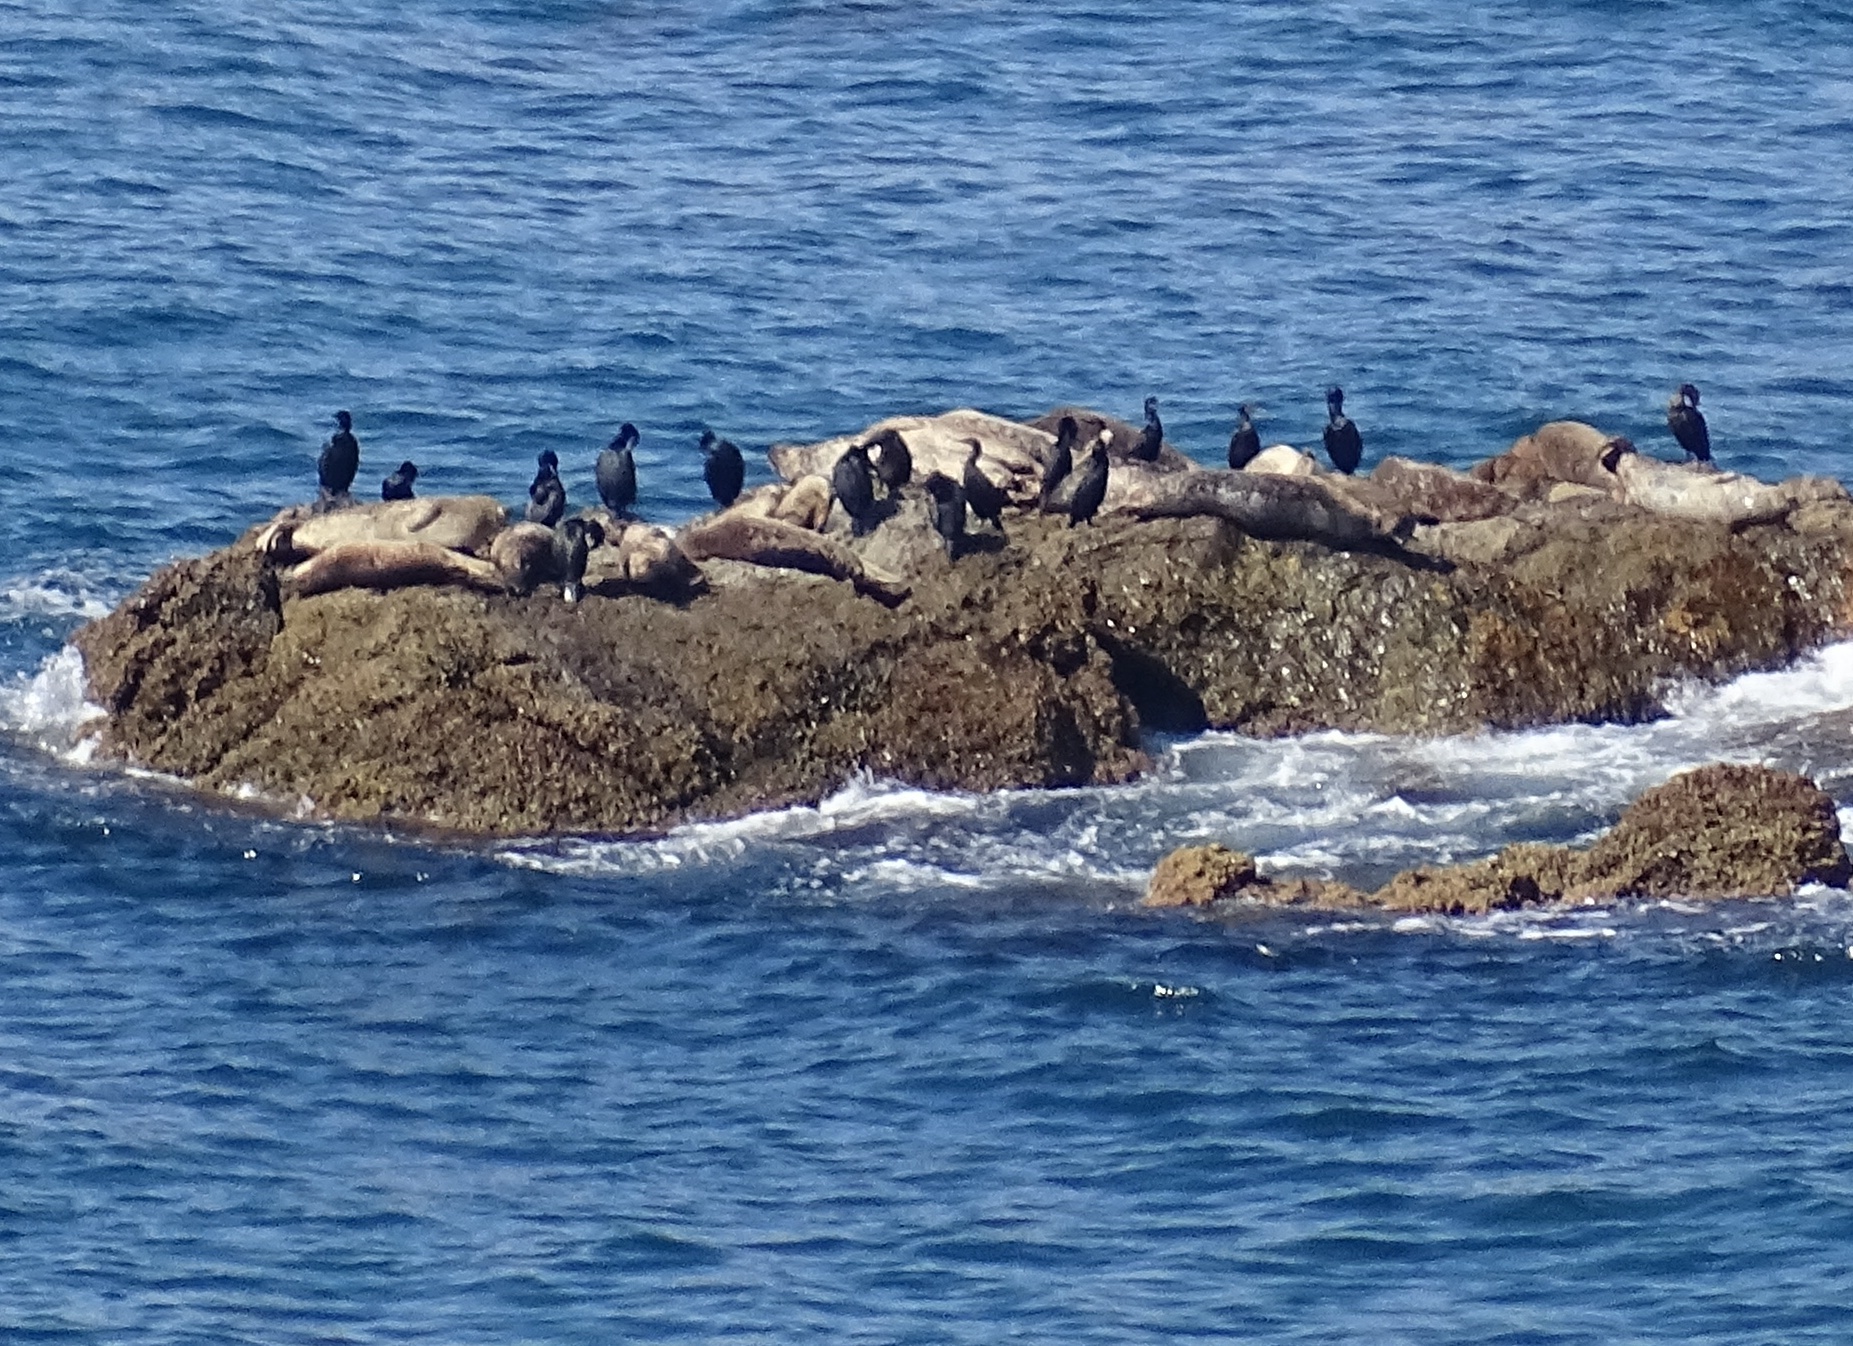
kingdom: Animalia
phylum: Chordata
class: Mammalia
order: Carnivora
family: Phocidae
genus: Phoca
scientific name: Phoca vitulina
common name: Harbor seal
